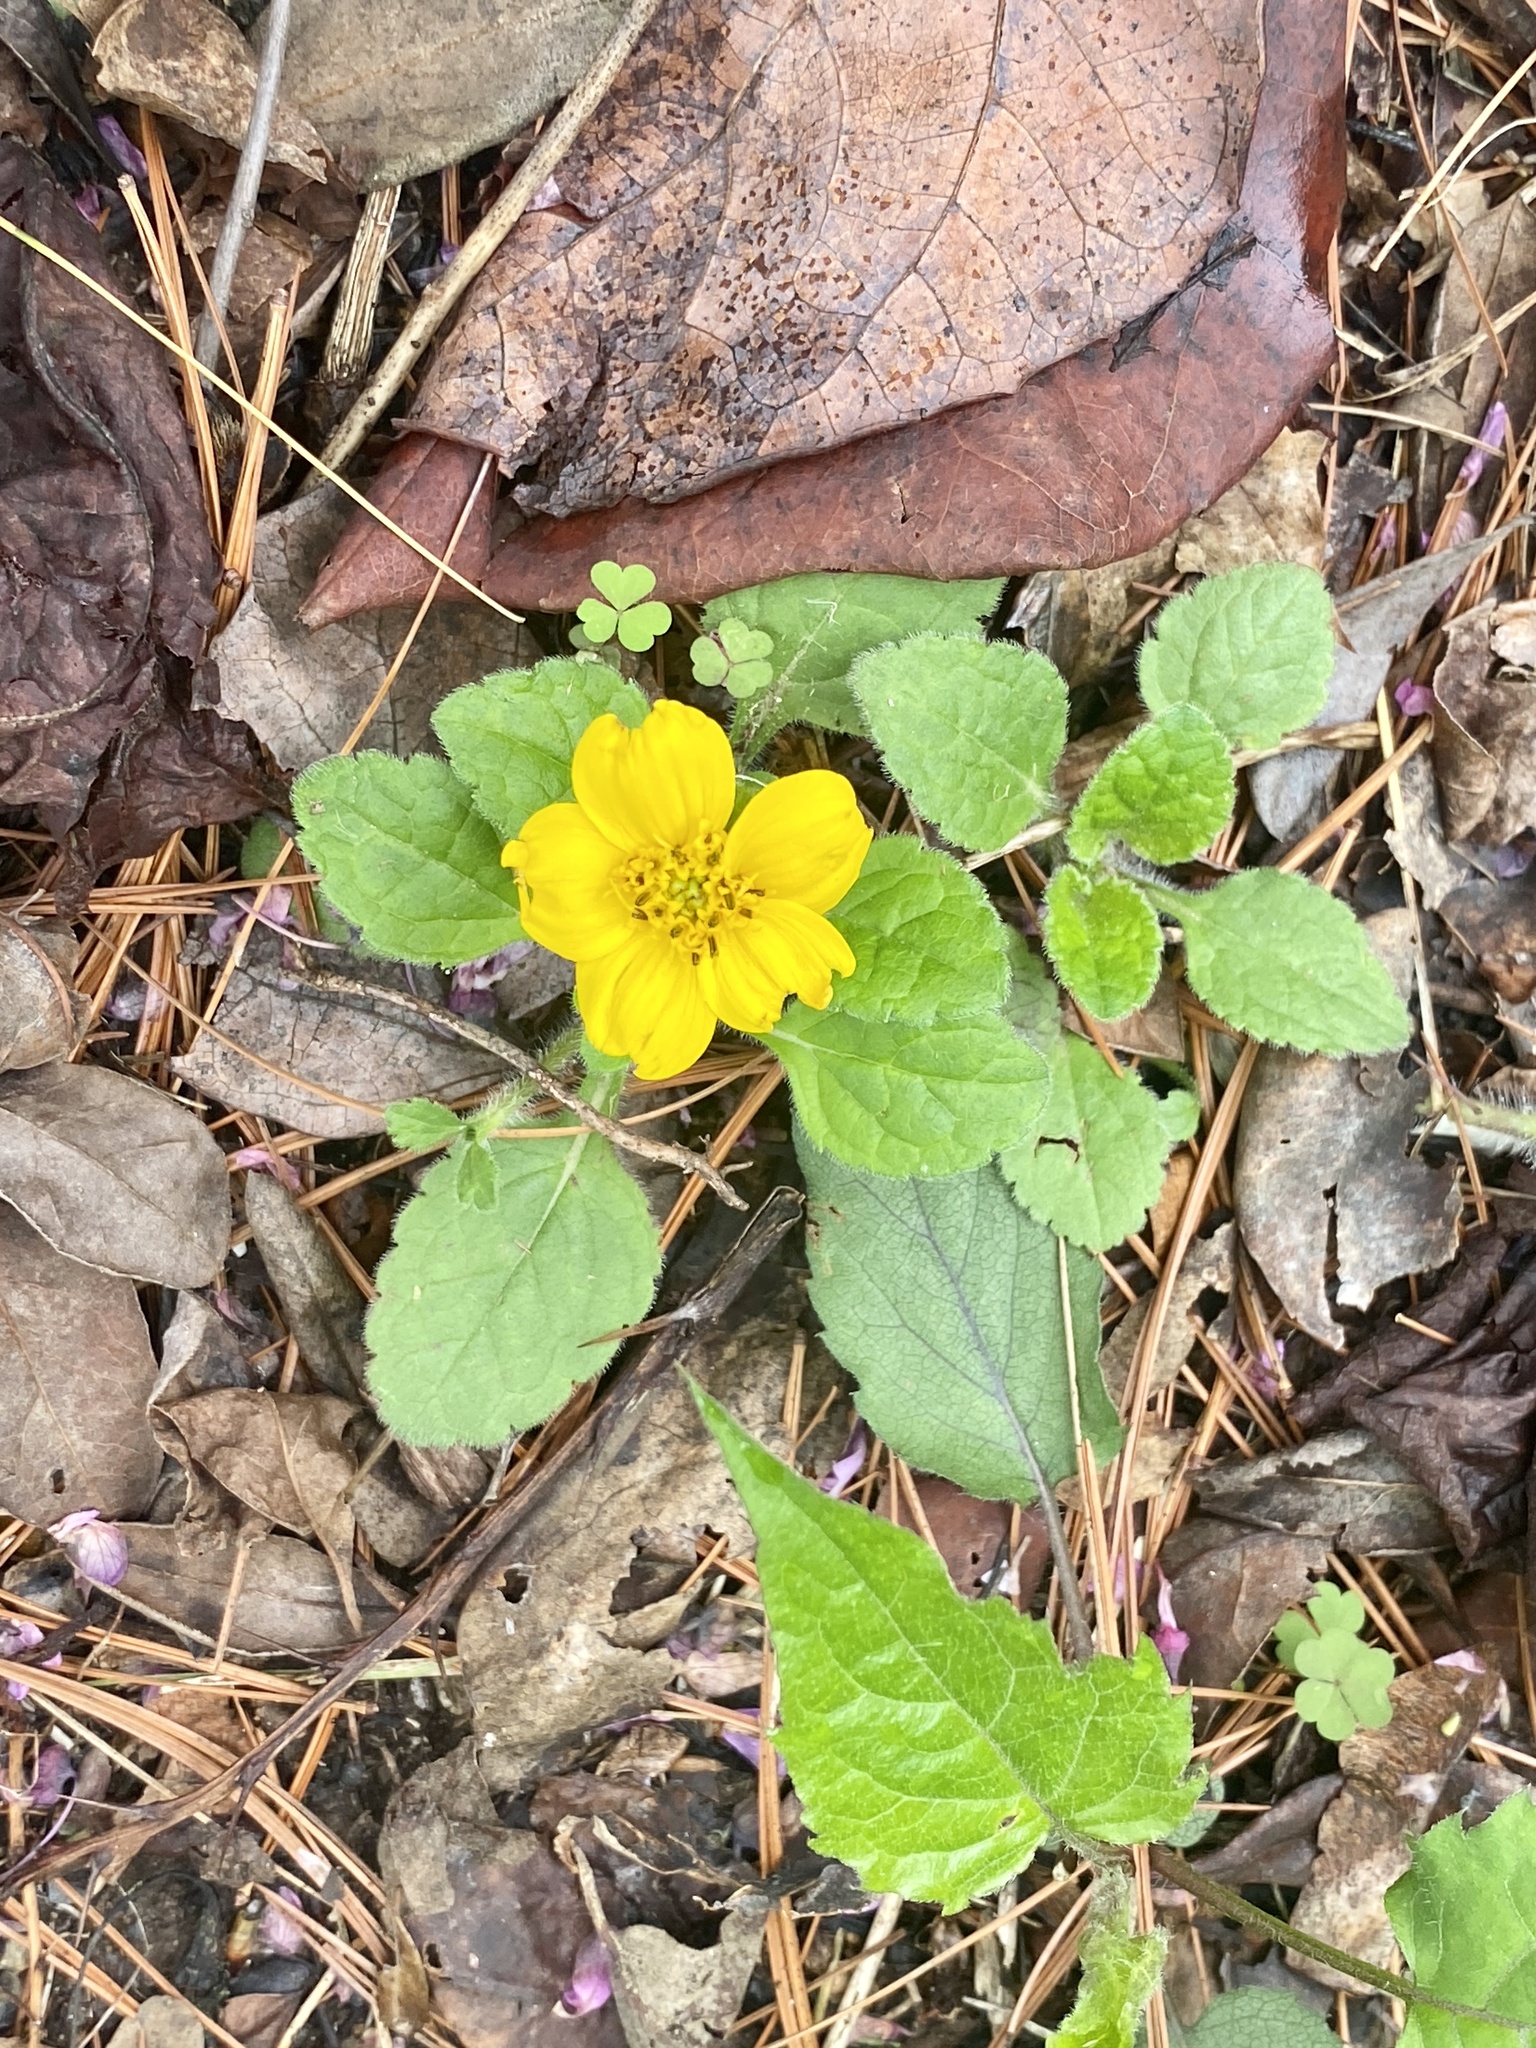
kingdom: Plantae
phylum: Tracheophyta
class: Magnoliopsida
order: Asterales
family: Asteraceae
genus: Chrysogonum
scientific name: Chrysogonum virginianum
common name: Golden-knee
